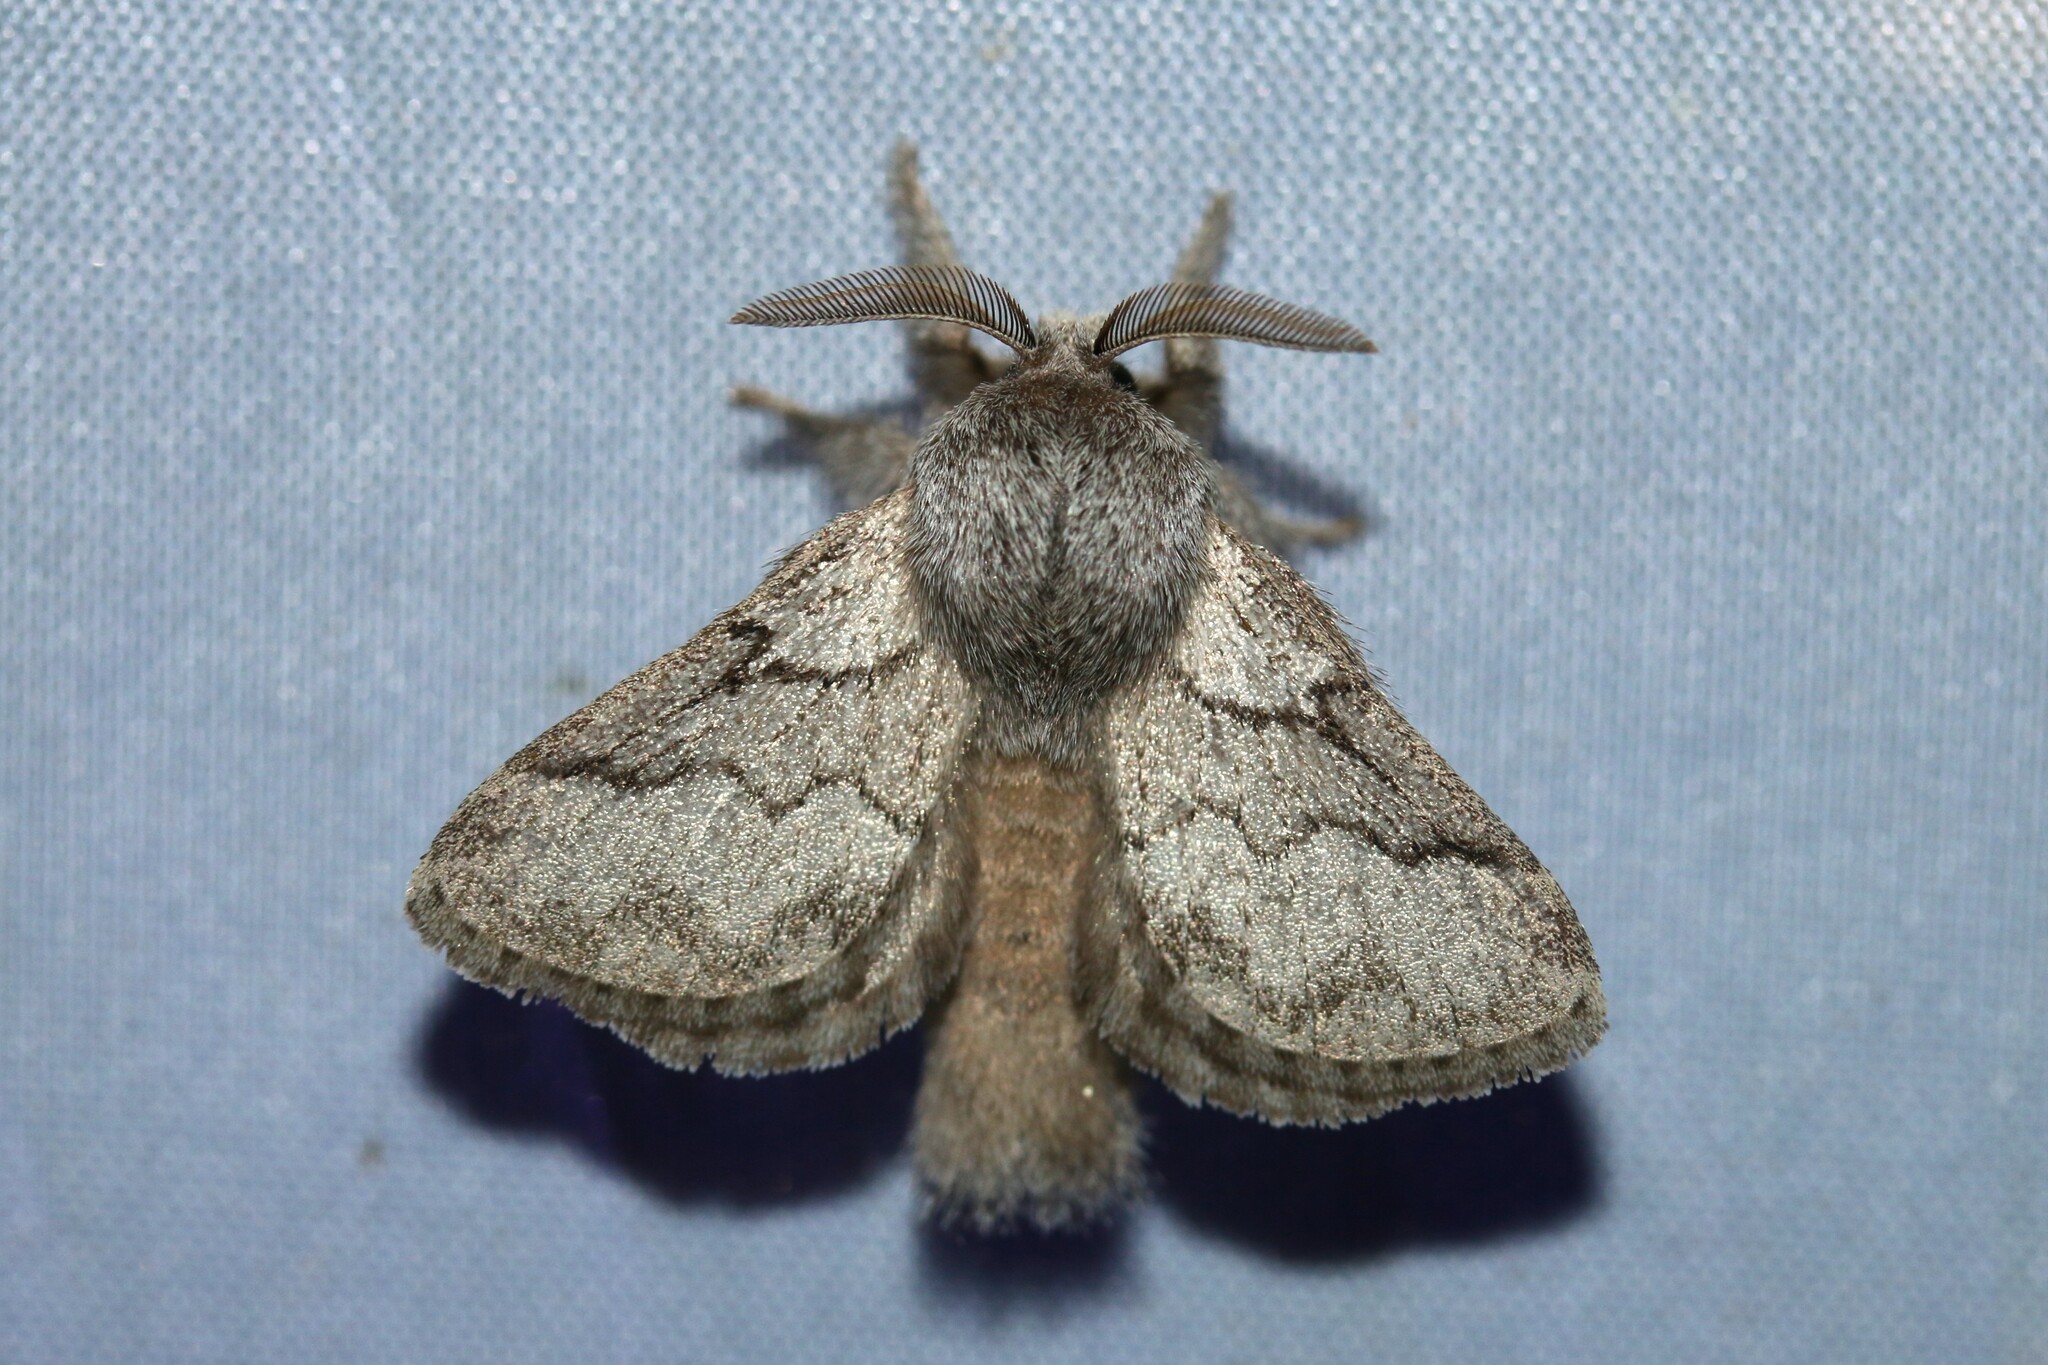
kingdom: Animalia
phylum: Arthropoda
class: Insecta
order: Lepidoptera
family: Lasiocampidae
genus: Trichiura
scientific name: Trichiura crataegi
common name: Pale eggar
